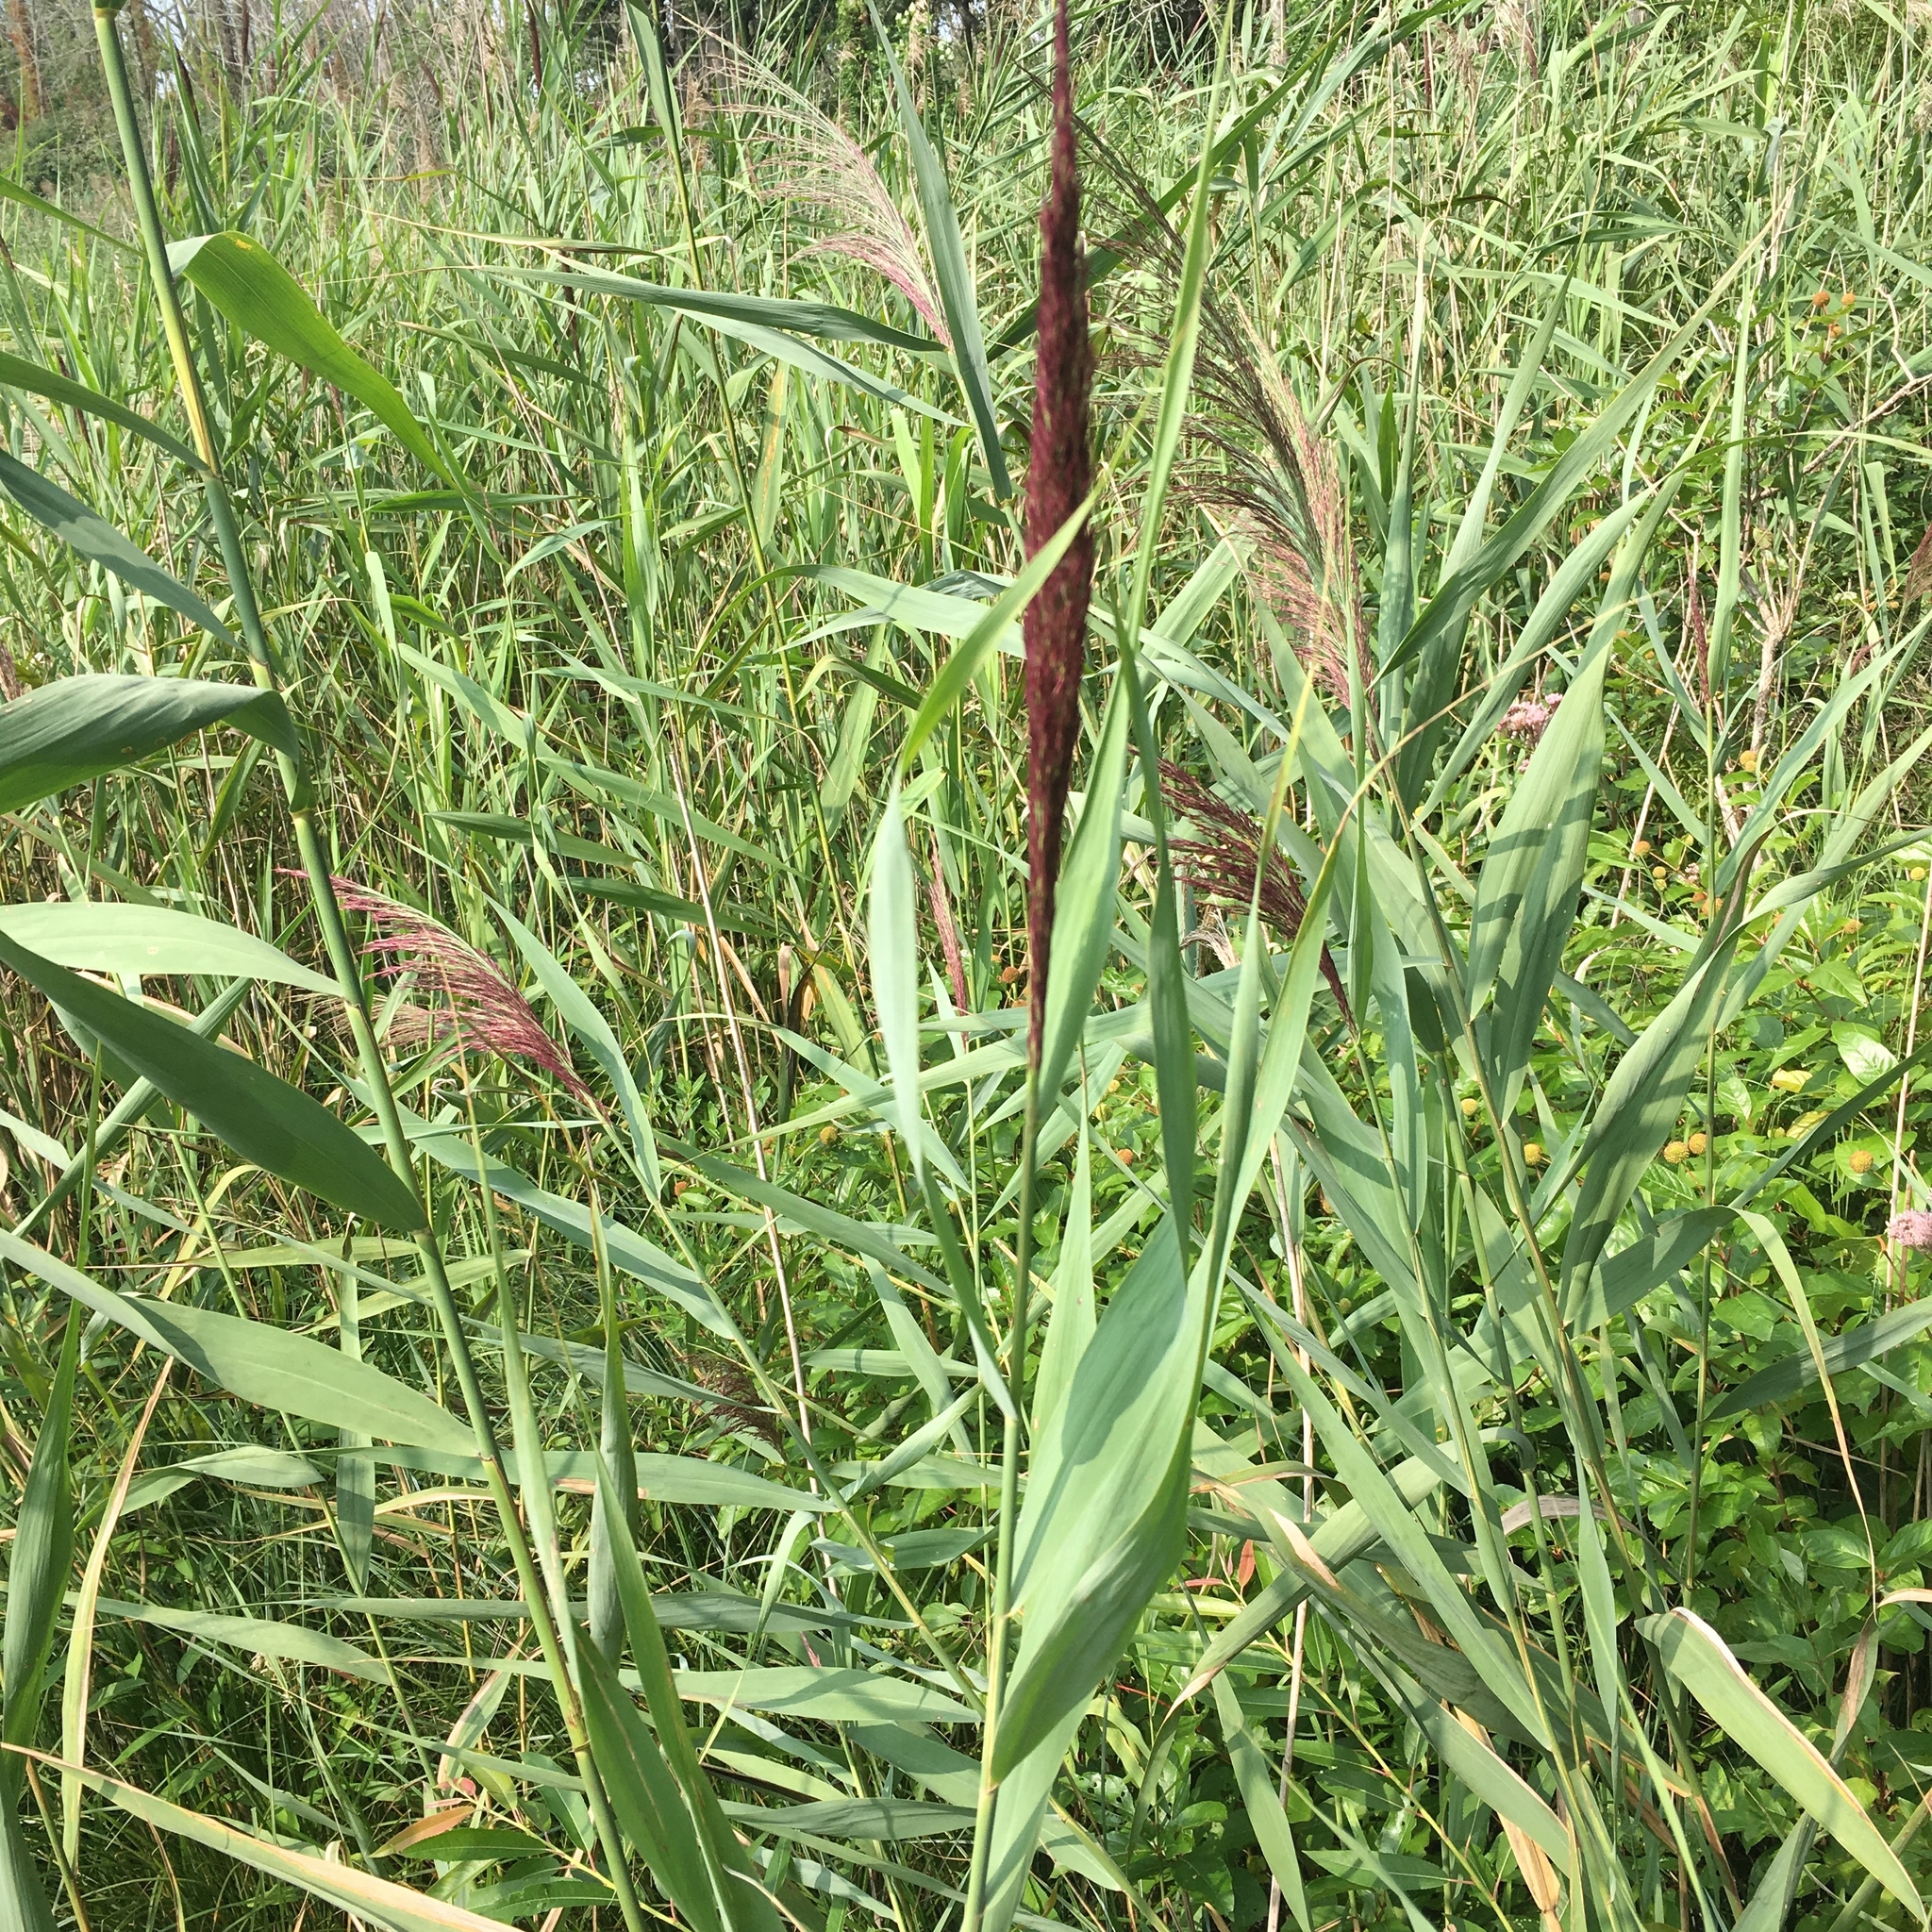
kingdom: Plantae
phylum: Tracheophyta
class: Liliopsida
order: Poales
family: Poaceae
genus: Phragmites
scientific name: Phragmites australis
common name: Common reed
